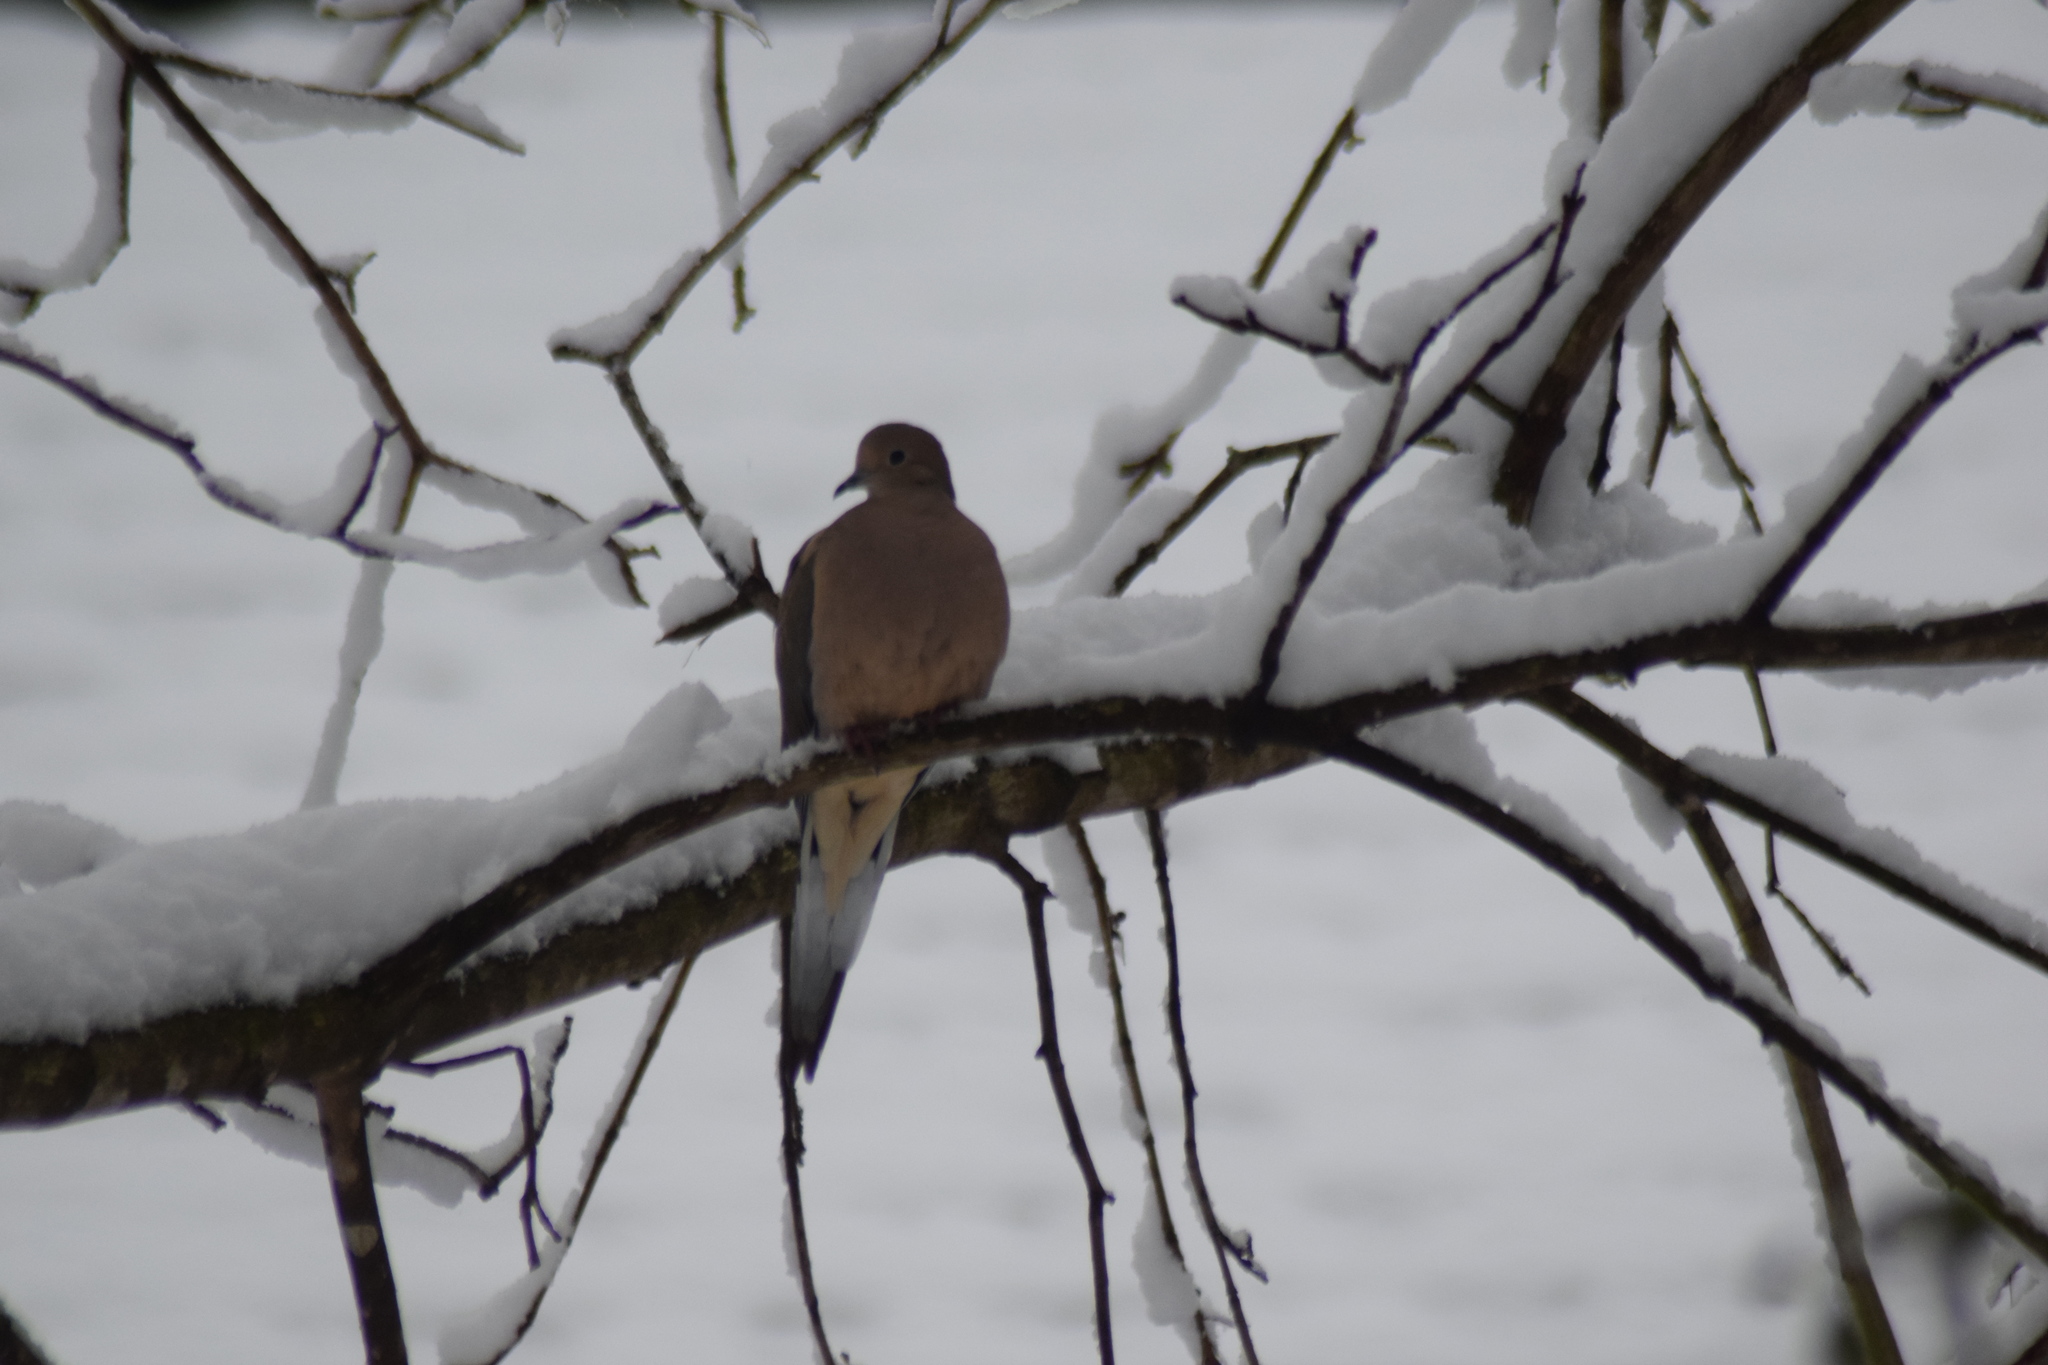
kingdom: Animalia
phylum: Chordata
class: Aves
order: Columbiformes
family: Columbidae
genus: Zenaida
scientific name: Zenaida macroura
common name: Mourning dove
